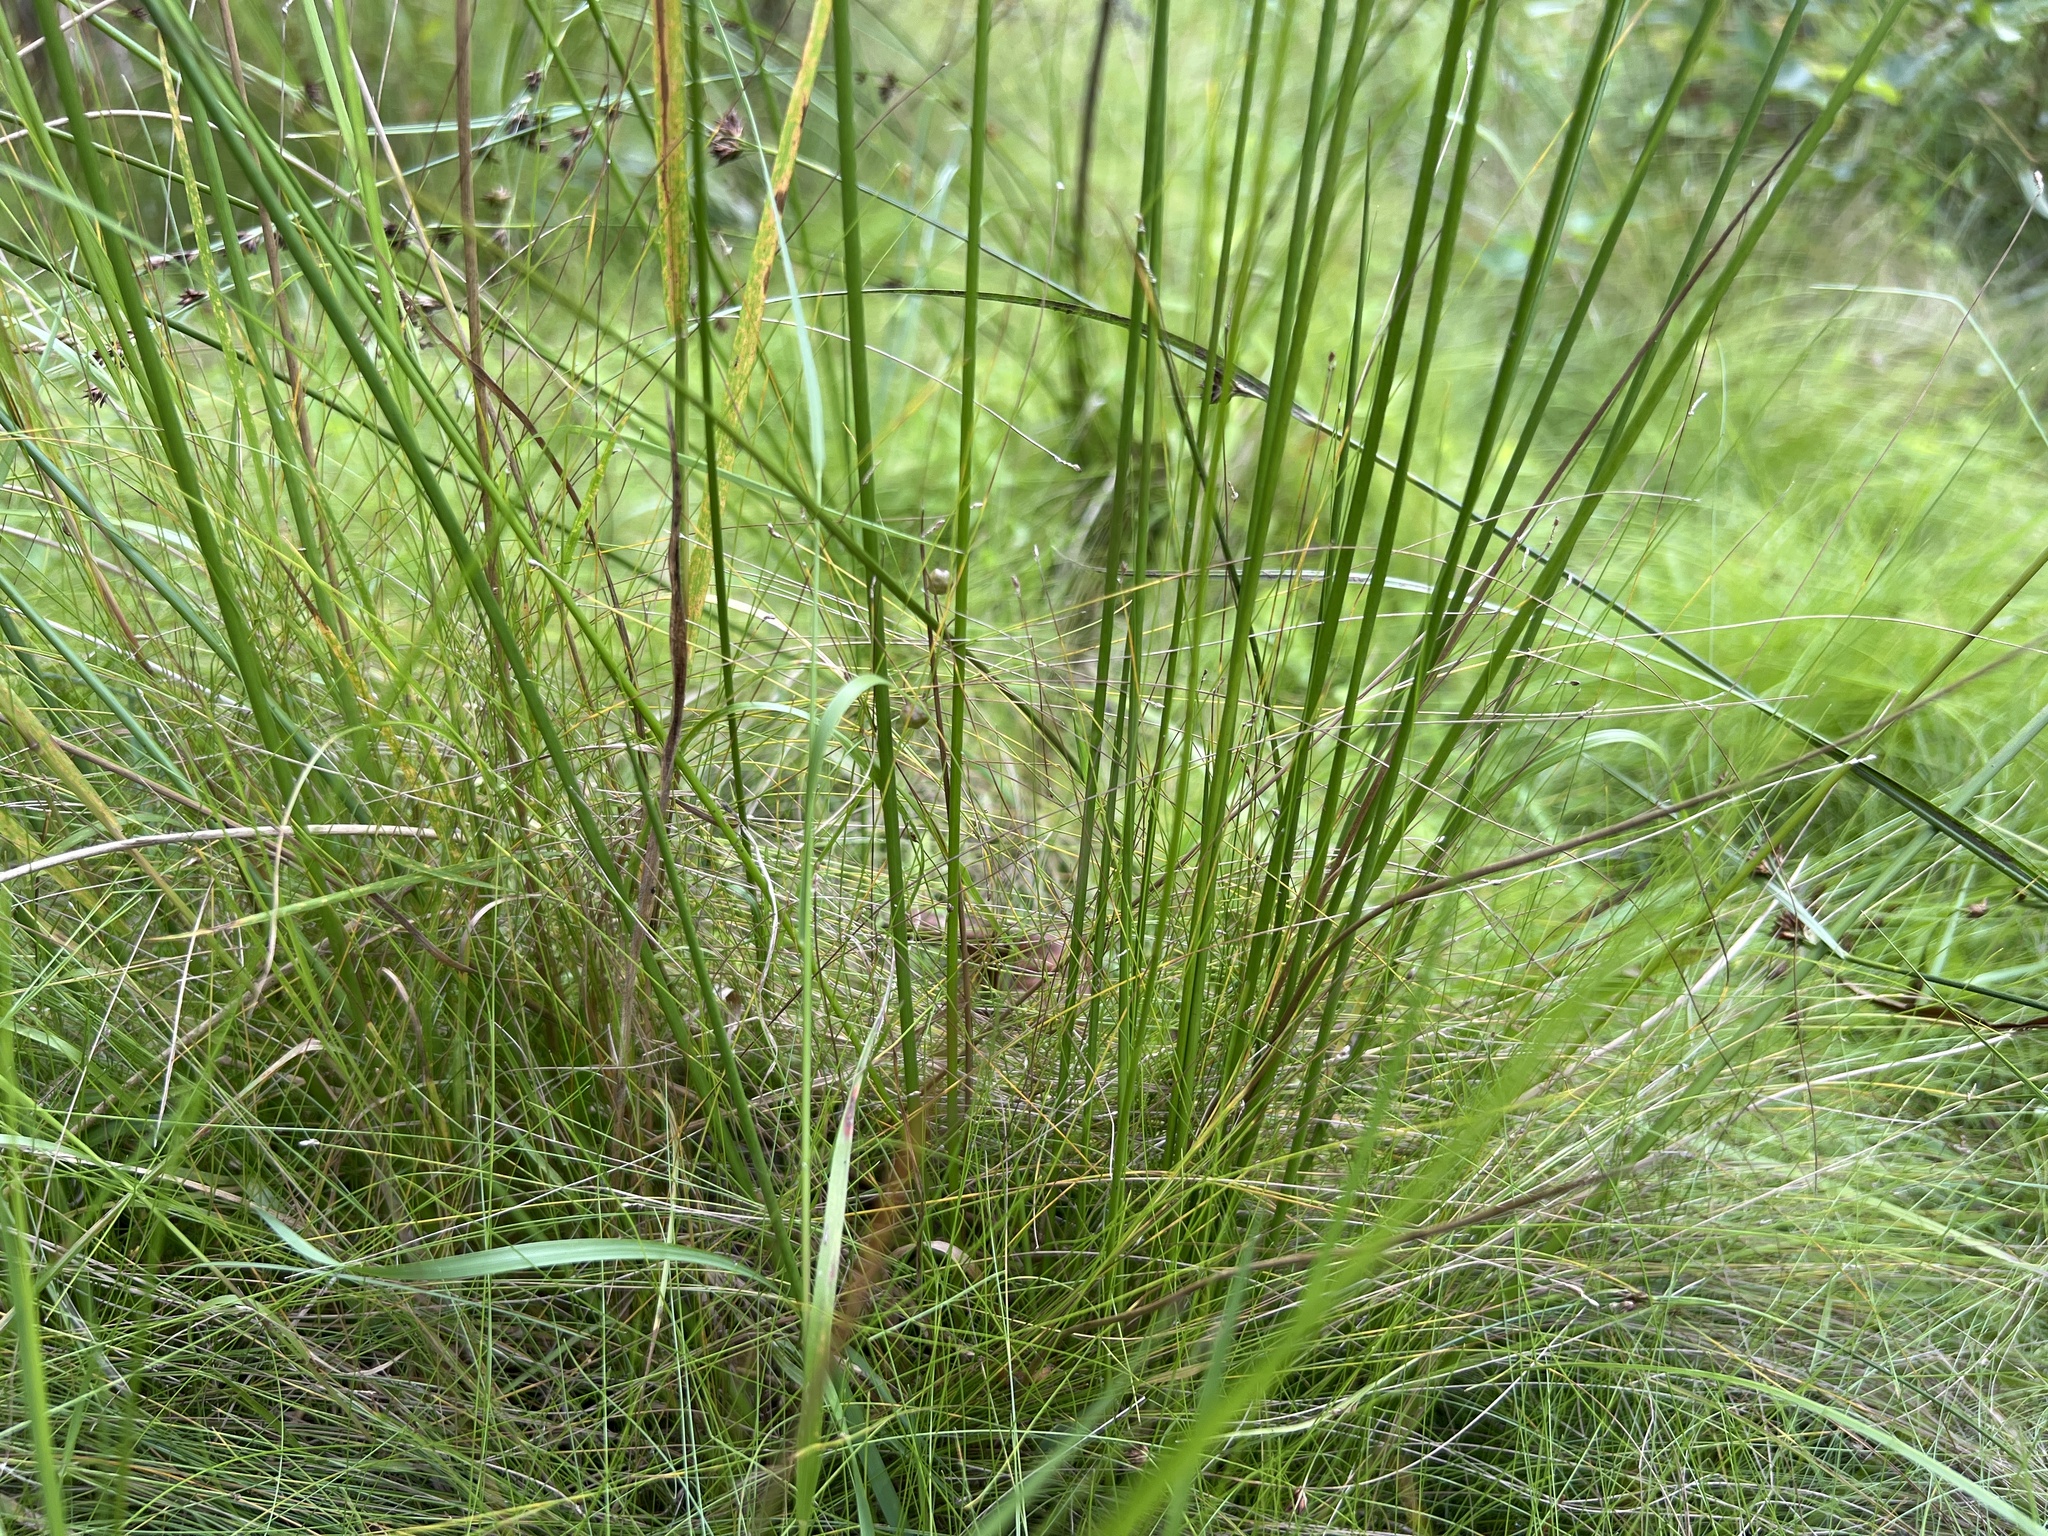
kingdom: Plantae
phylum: Tracheophyta
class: Liliopsida
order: Poales
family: Juncaceae
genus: Juncus
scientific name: Juncus pylaei
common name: Common rush
